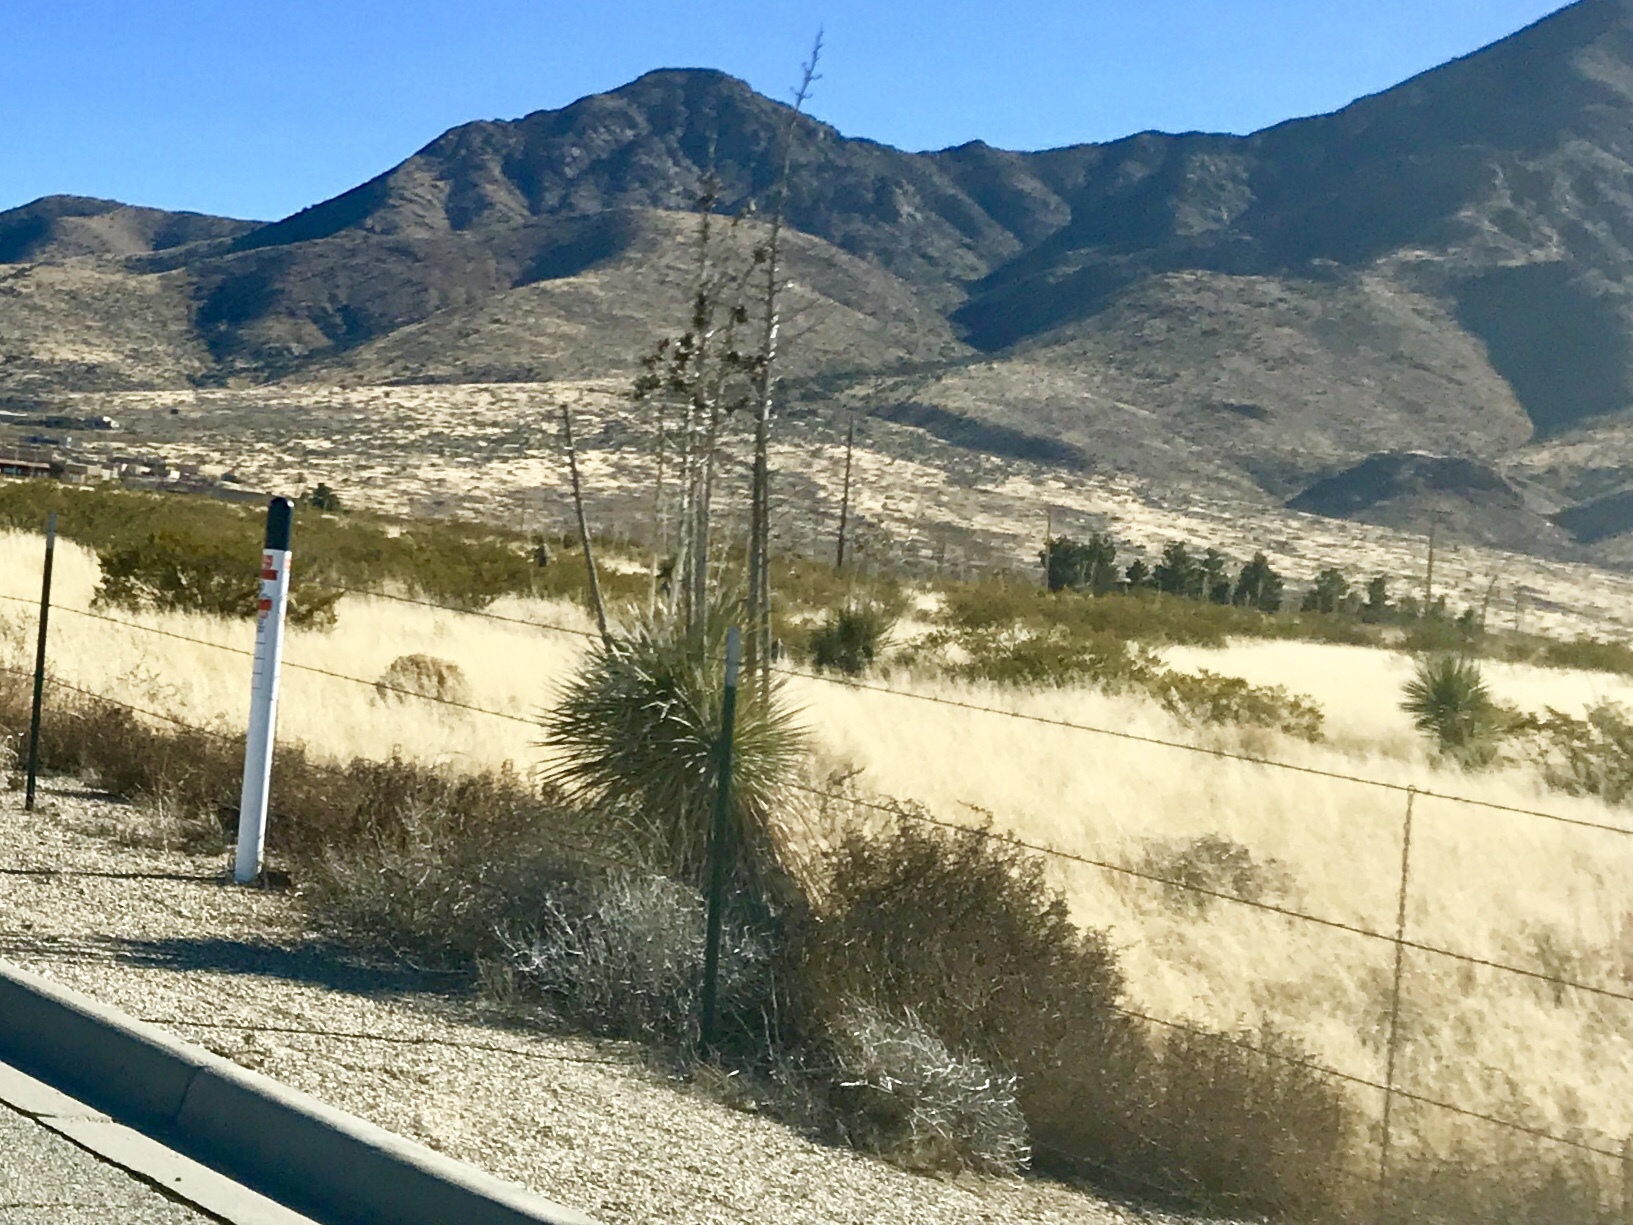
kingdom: Plantae
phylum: Tracheophyta
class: Liliopsida
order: Asparagales
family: Asparagaceae
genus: Yucca
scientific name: Yucca elata
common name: Palmella
